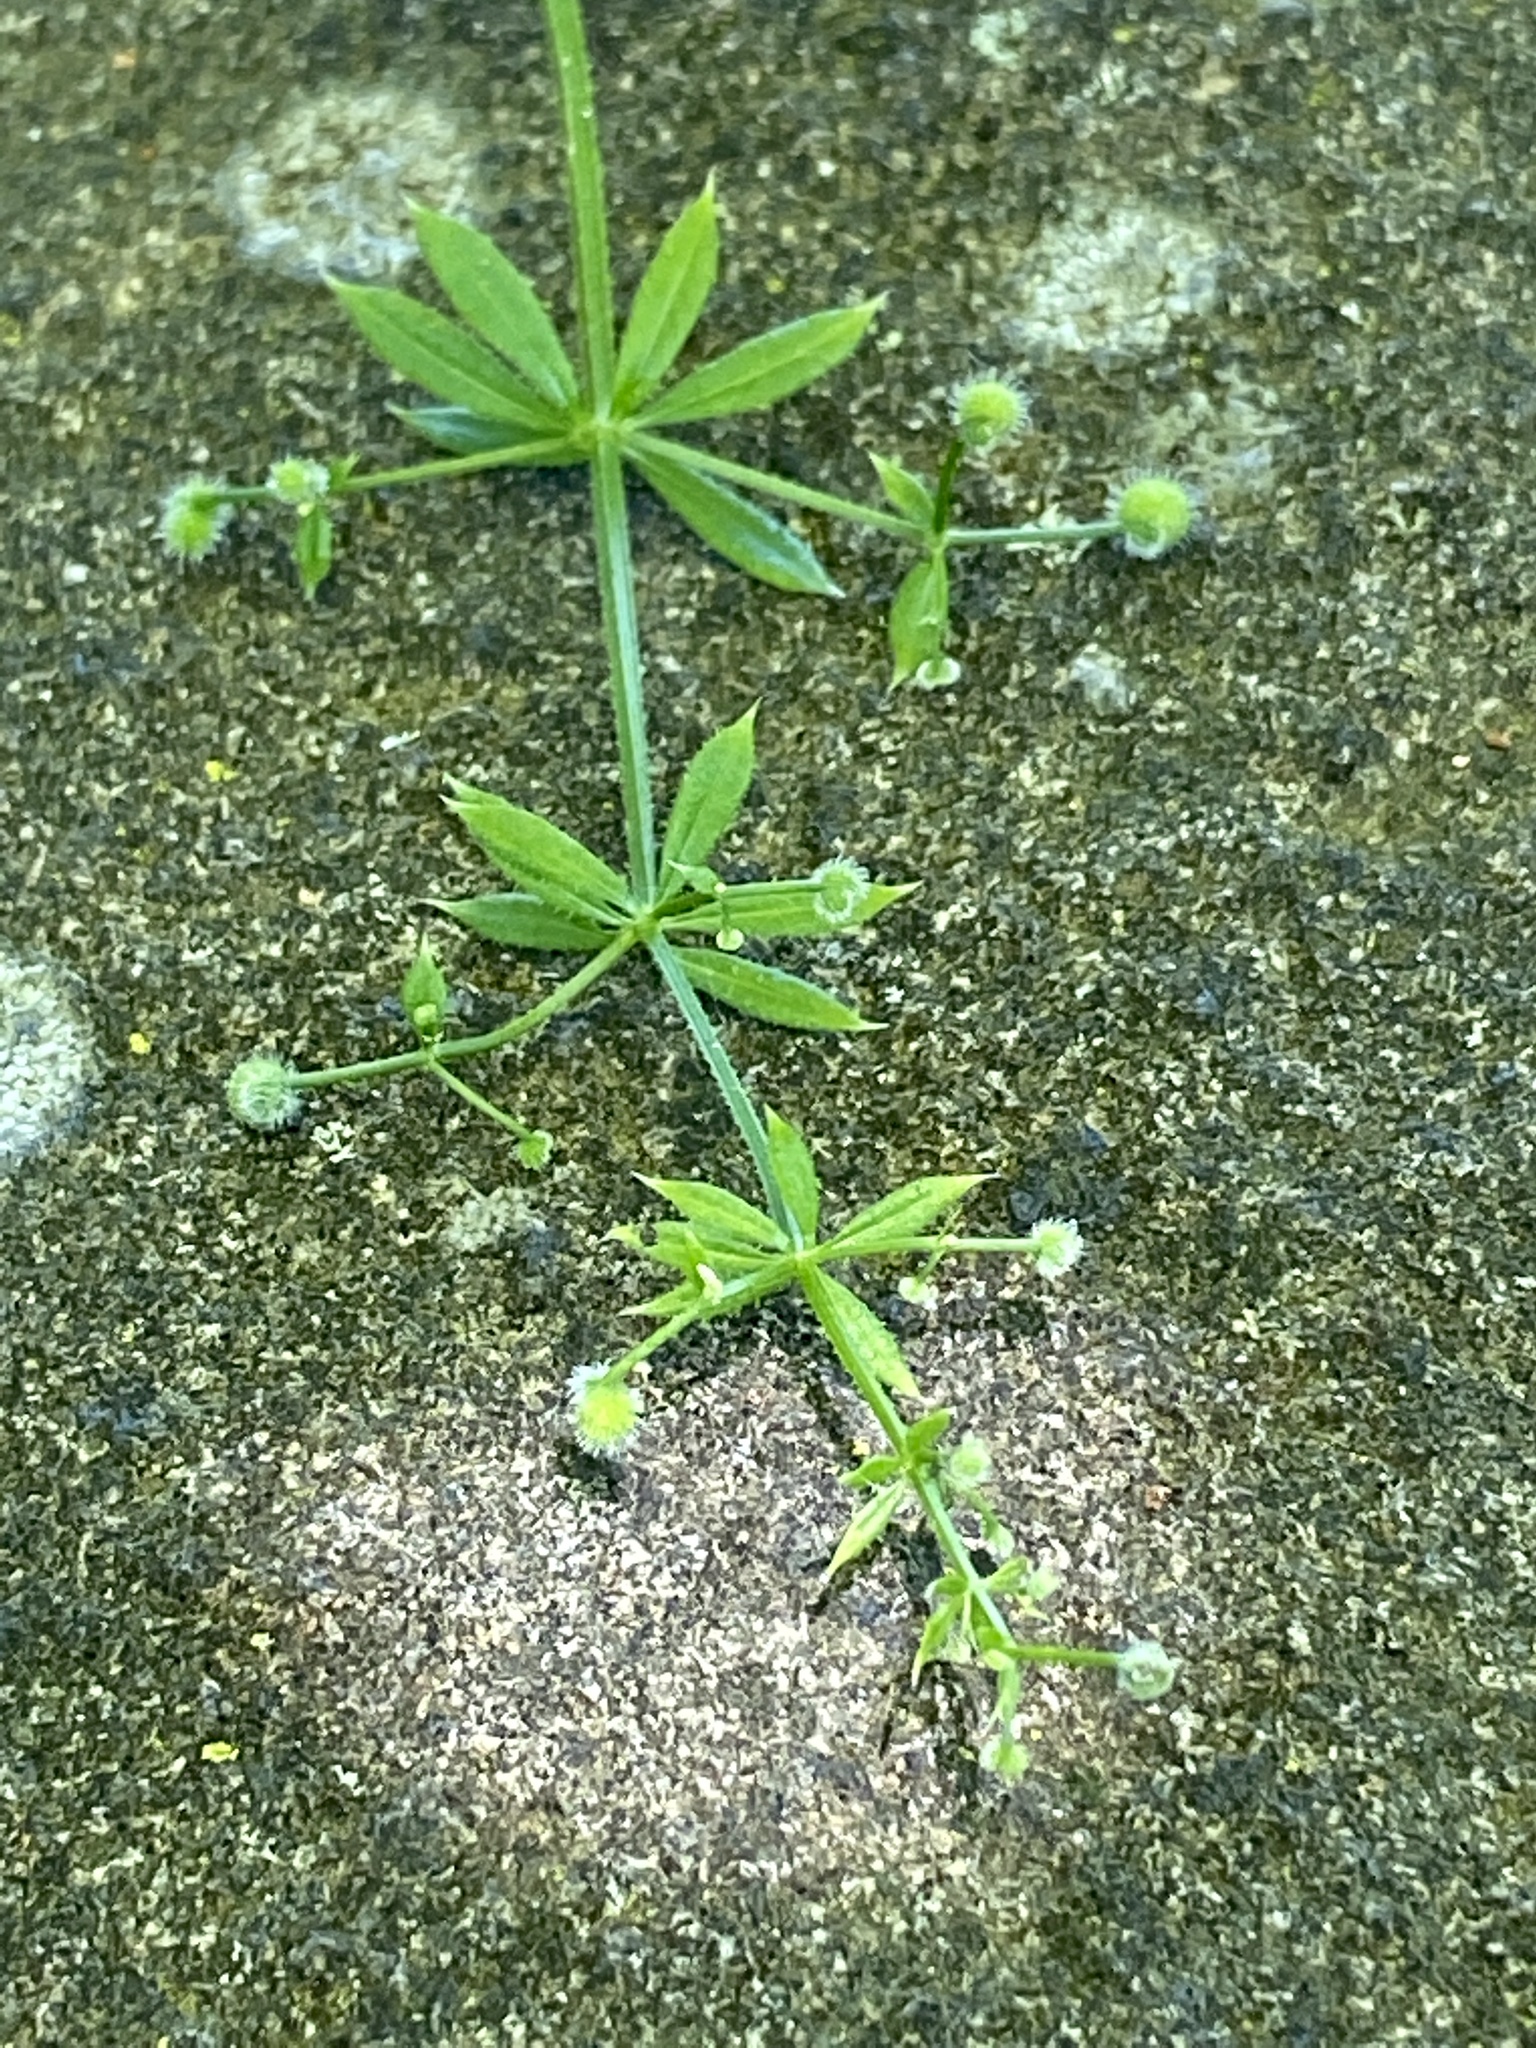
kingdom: Plantae
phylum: Tracheophyta
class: Magnoliopsida
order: Gentianales
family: Rubiaceae
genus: Galium
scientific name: Galium aparine
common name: Cleavers
